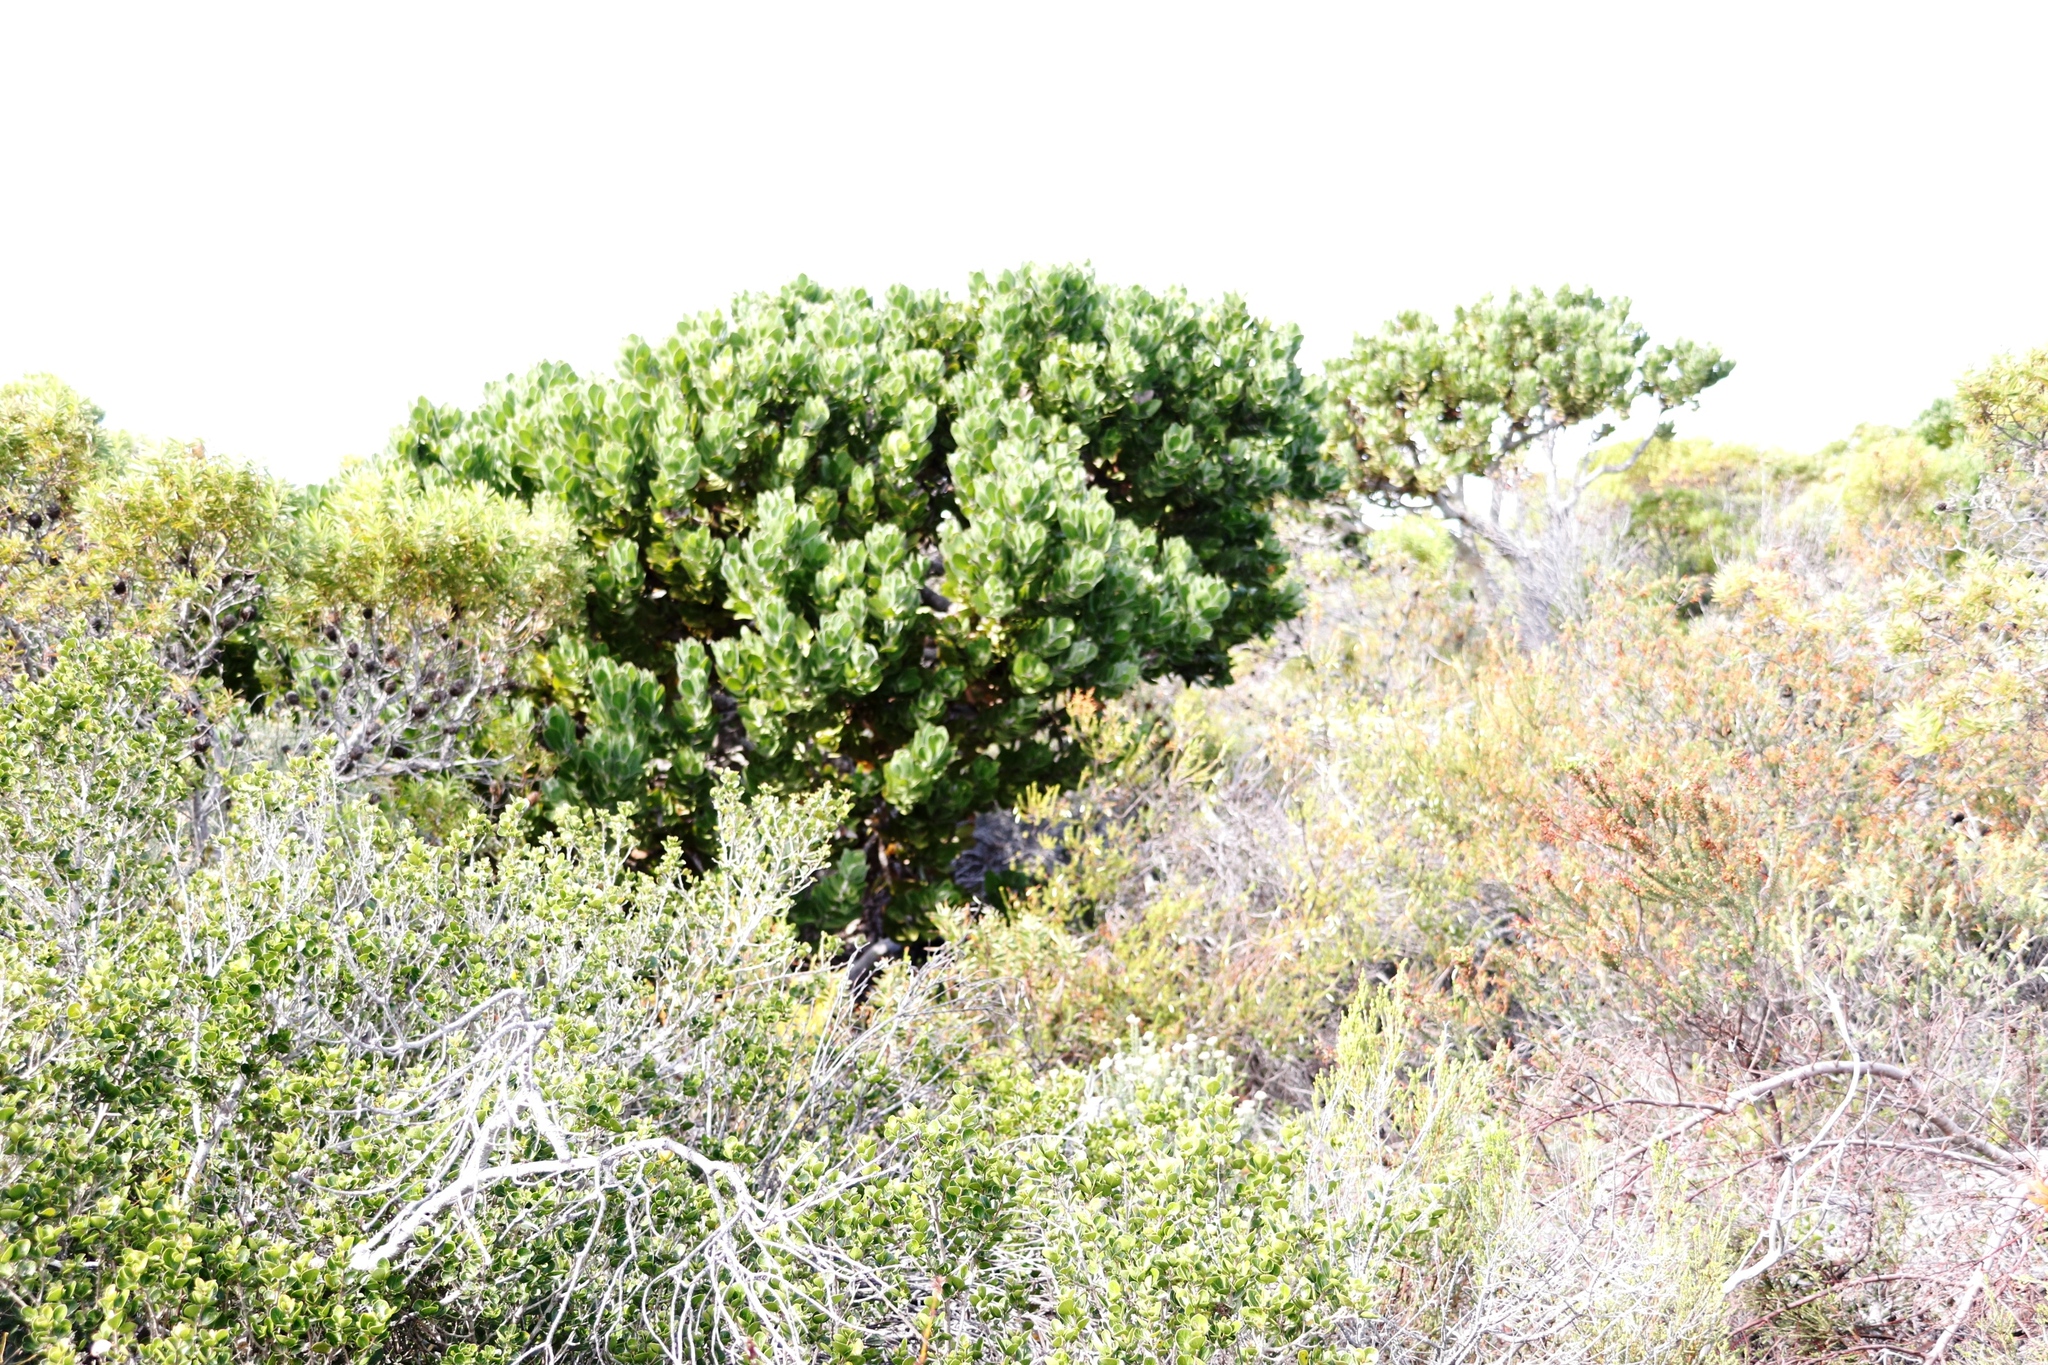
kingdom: Plantae
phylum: Tracheophyta
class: Magnoliopsida
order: Proteales
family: Proteaceae
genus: Leucospermum
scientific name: Leucospermum conocarpodendron
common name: Tree pincushion
